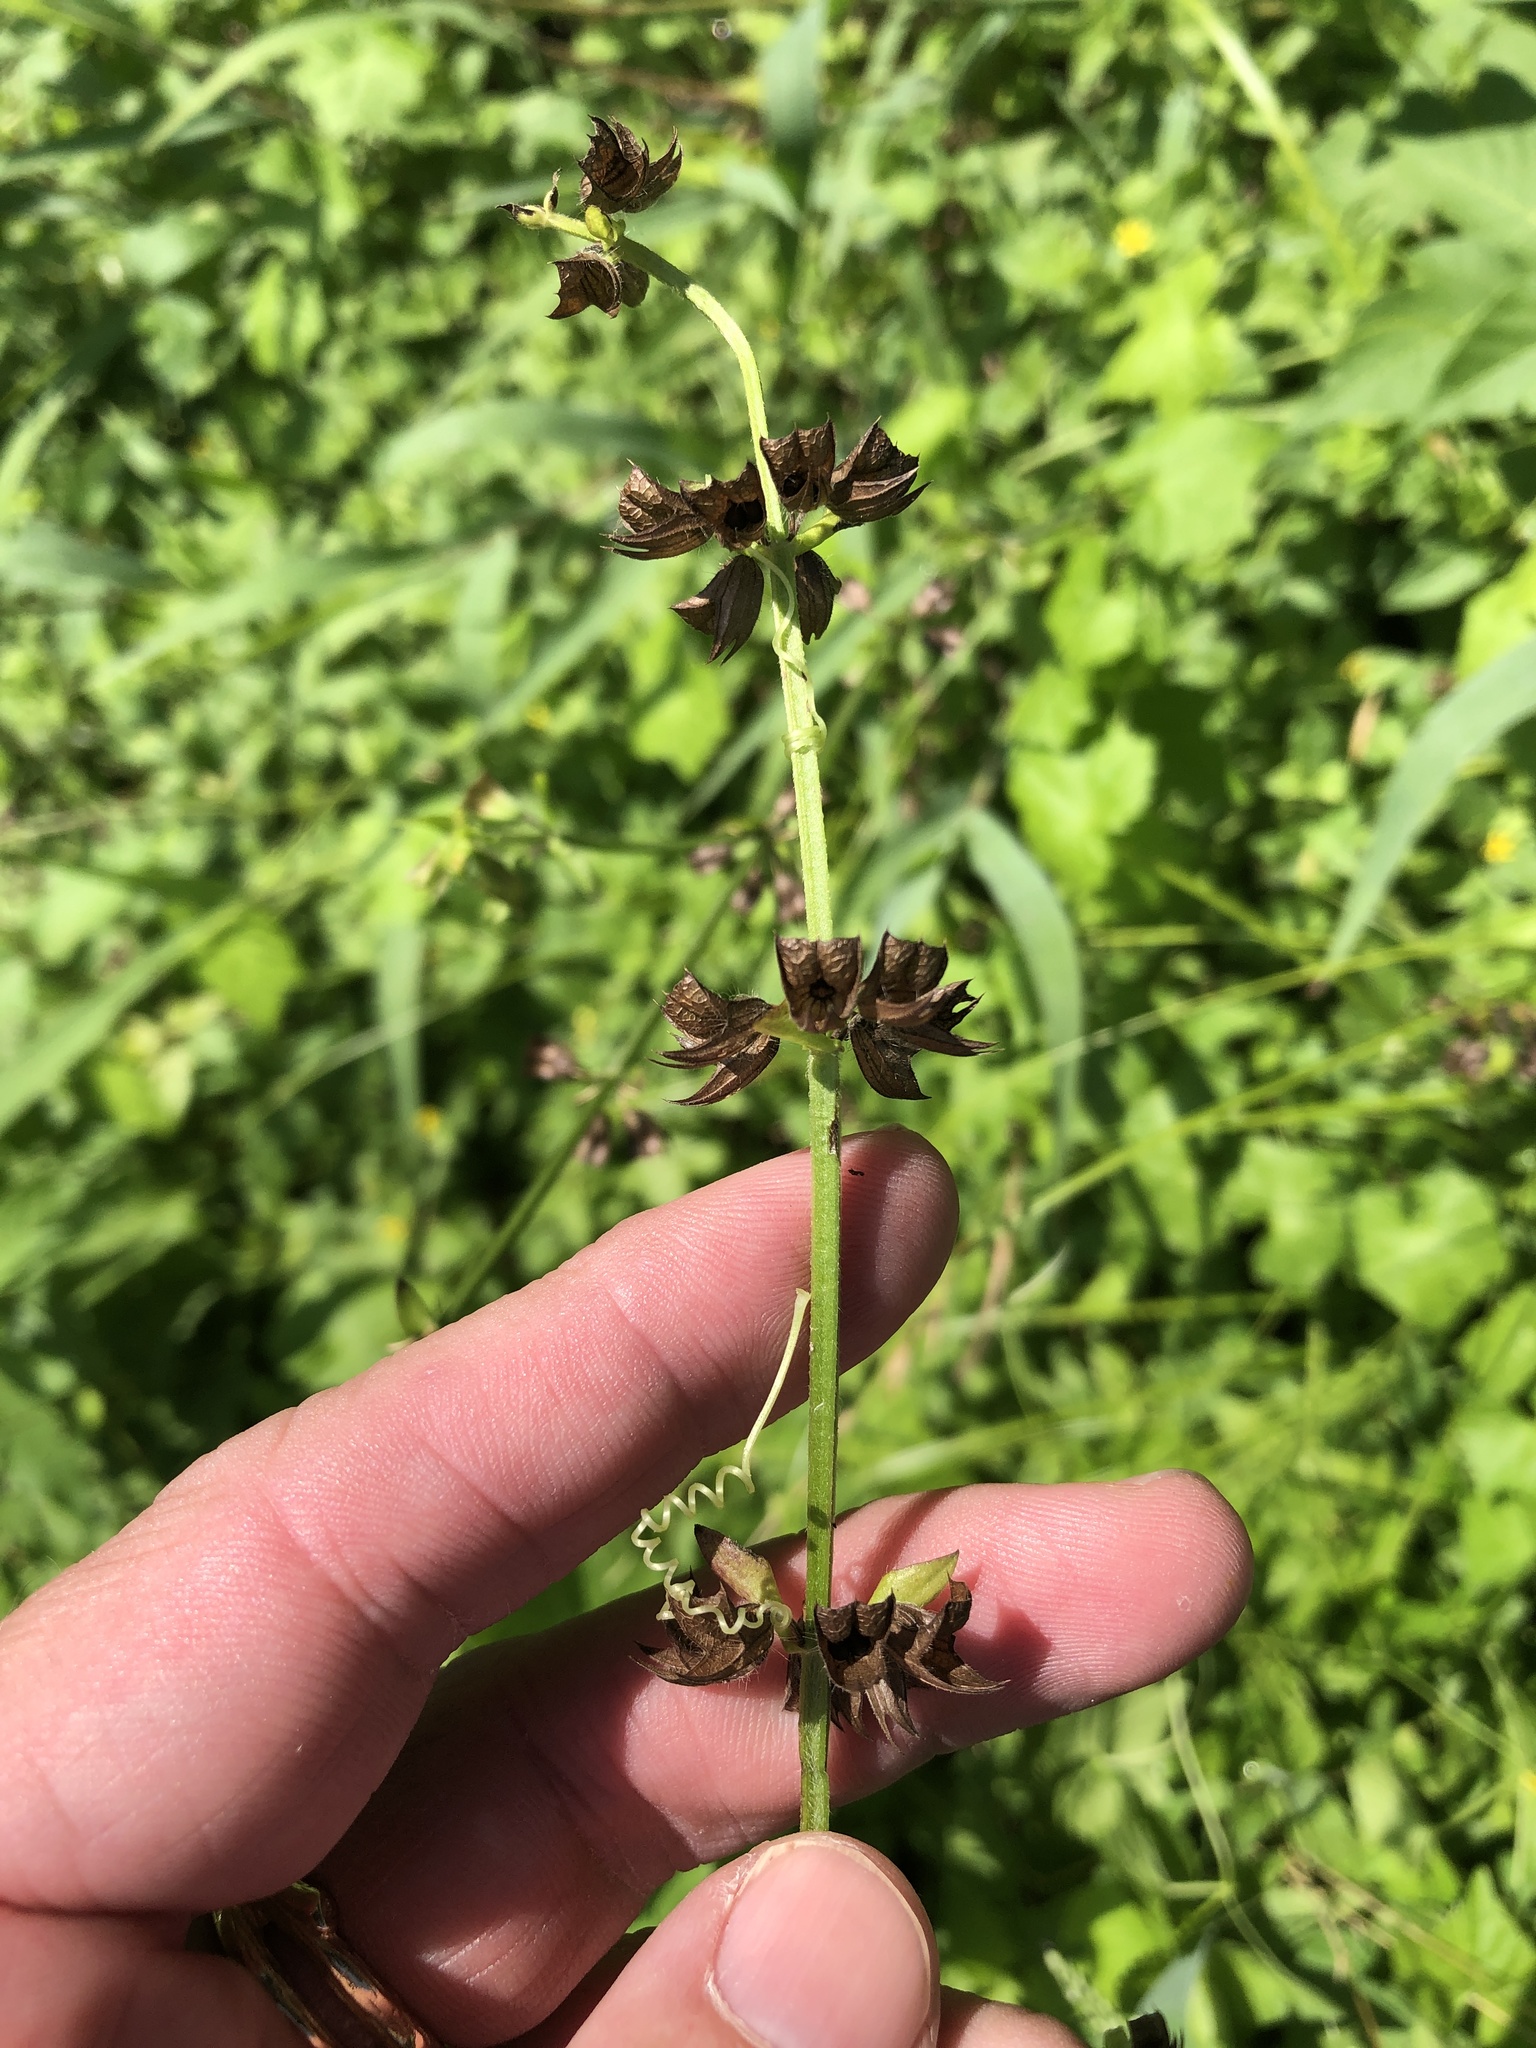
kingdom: Plantae
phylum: Tracheophyta
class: Magnoliopsida
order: Lamiales
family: Lamiaceae
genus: Salvia
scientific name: Salvia lyrata
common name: Cancerweed
